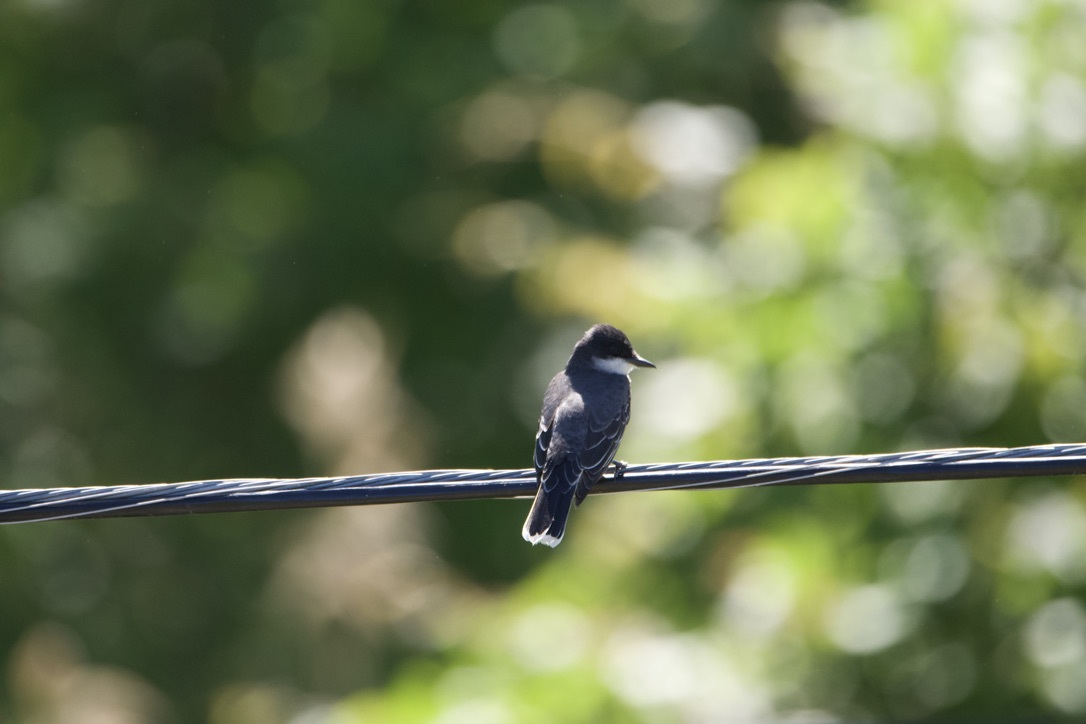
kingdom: Animalia
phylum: Chordata
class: Aves
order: Passeriformes
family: Tyrannidae
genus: Tyrannus
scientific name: Tyrannus tyrannus
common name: Eastern kingbird
